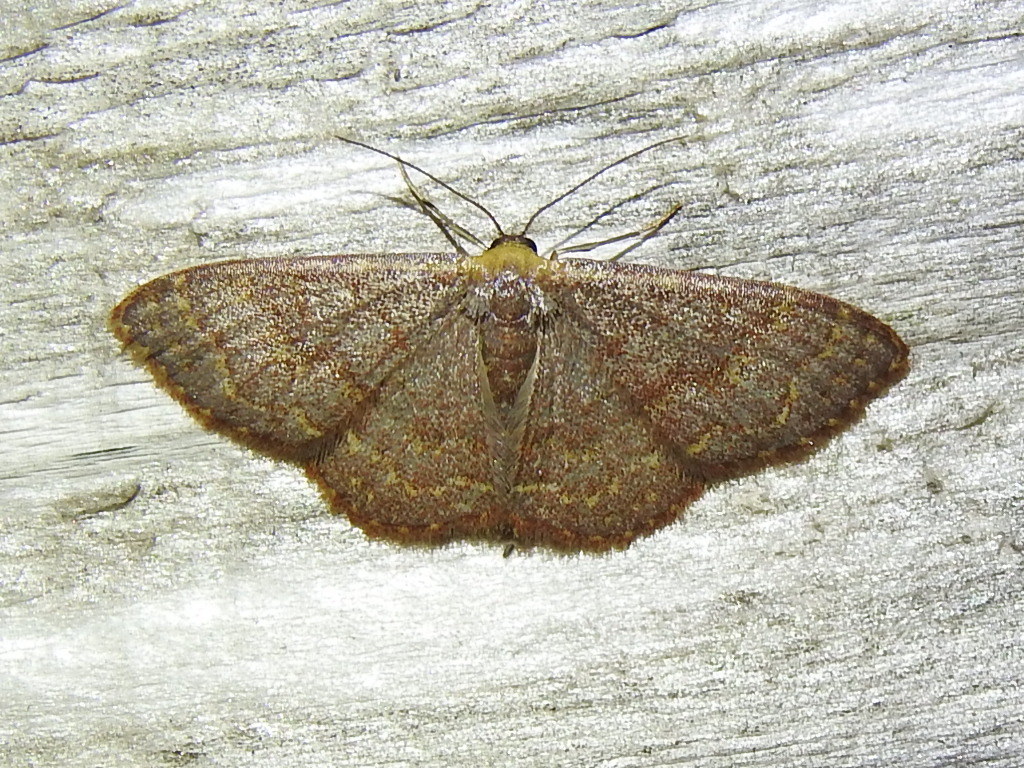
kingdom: Animalia
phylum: Arthropoda
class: Insecta
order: Lepidoptera
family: Geometridae
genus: Leptostales
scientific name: Leptostales pannaria
